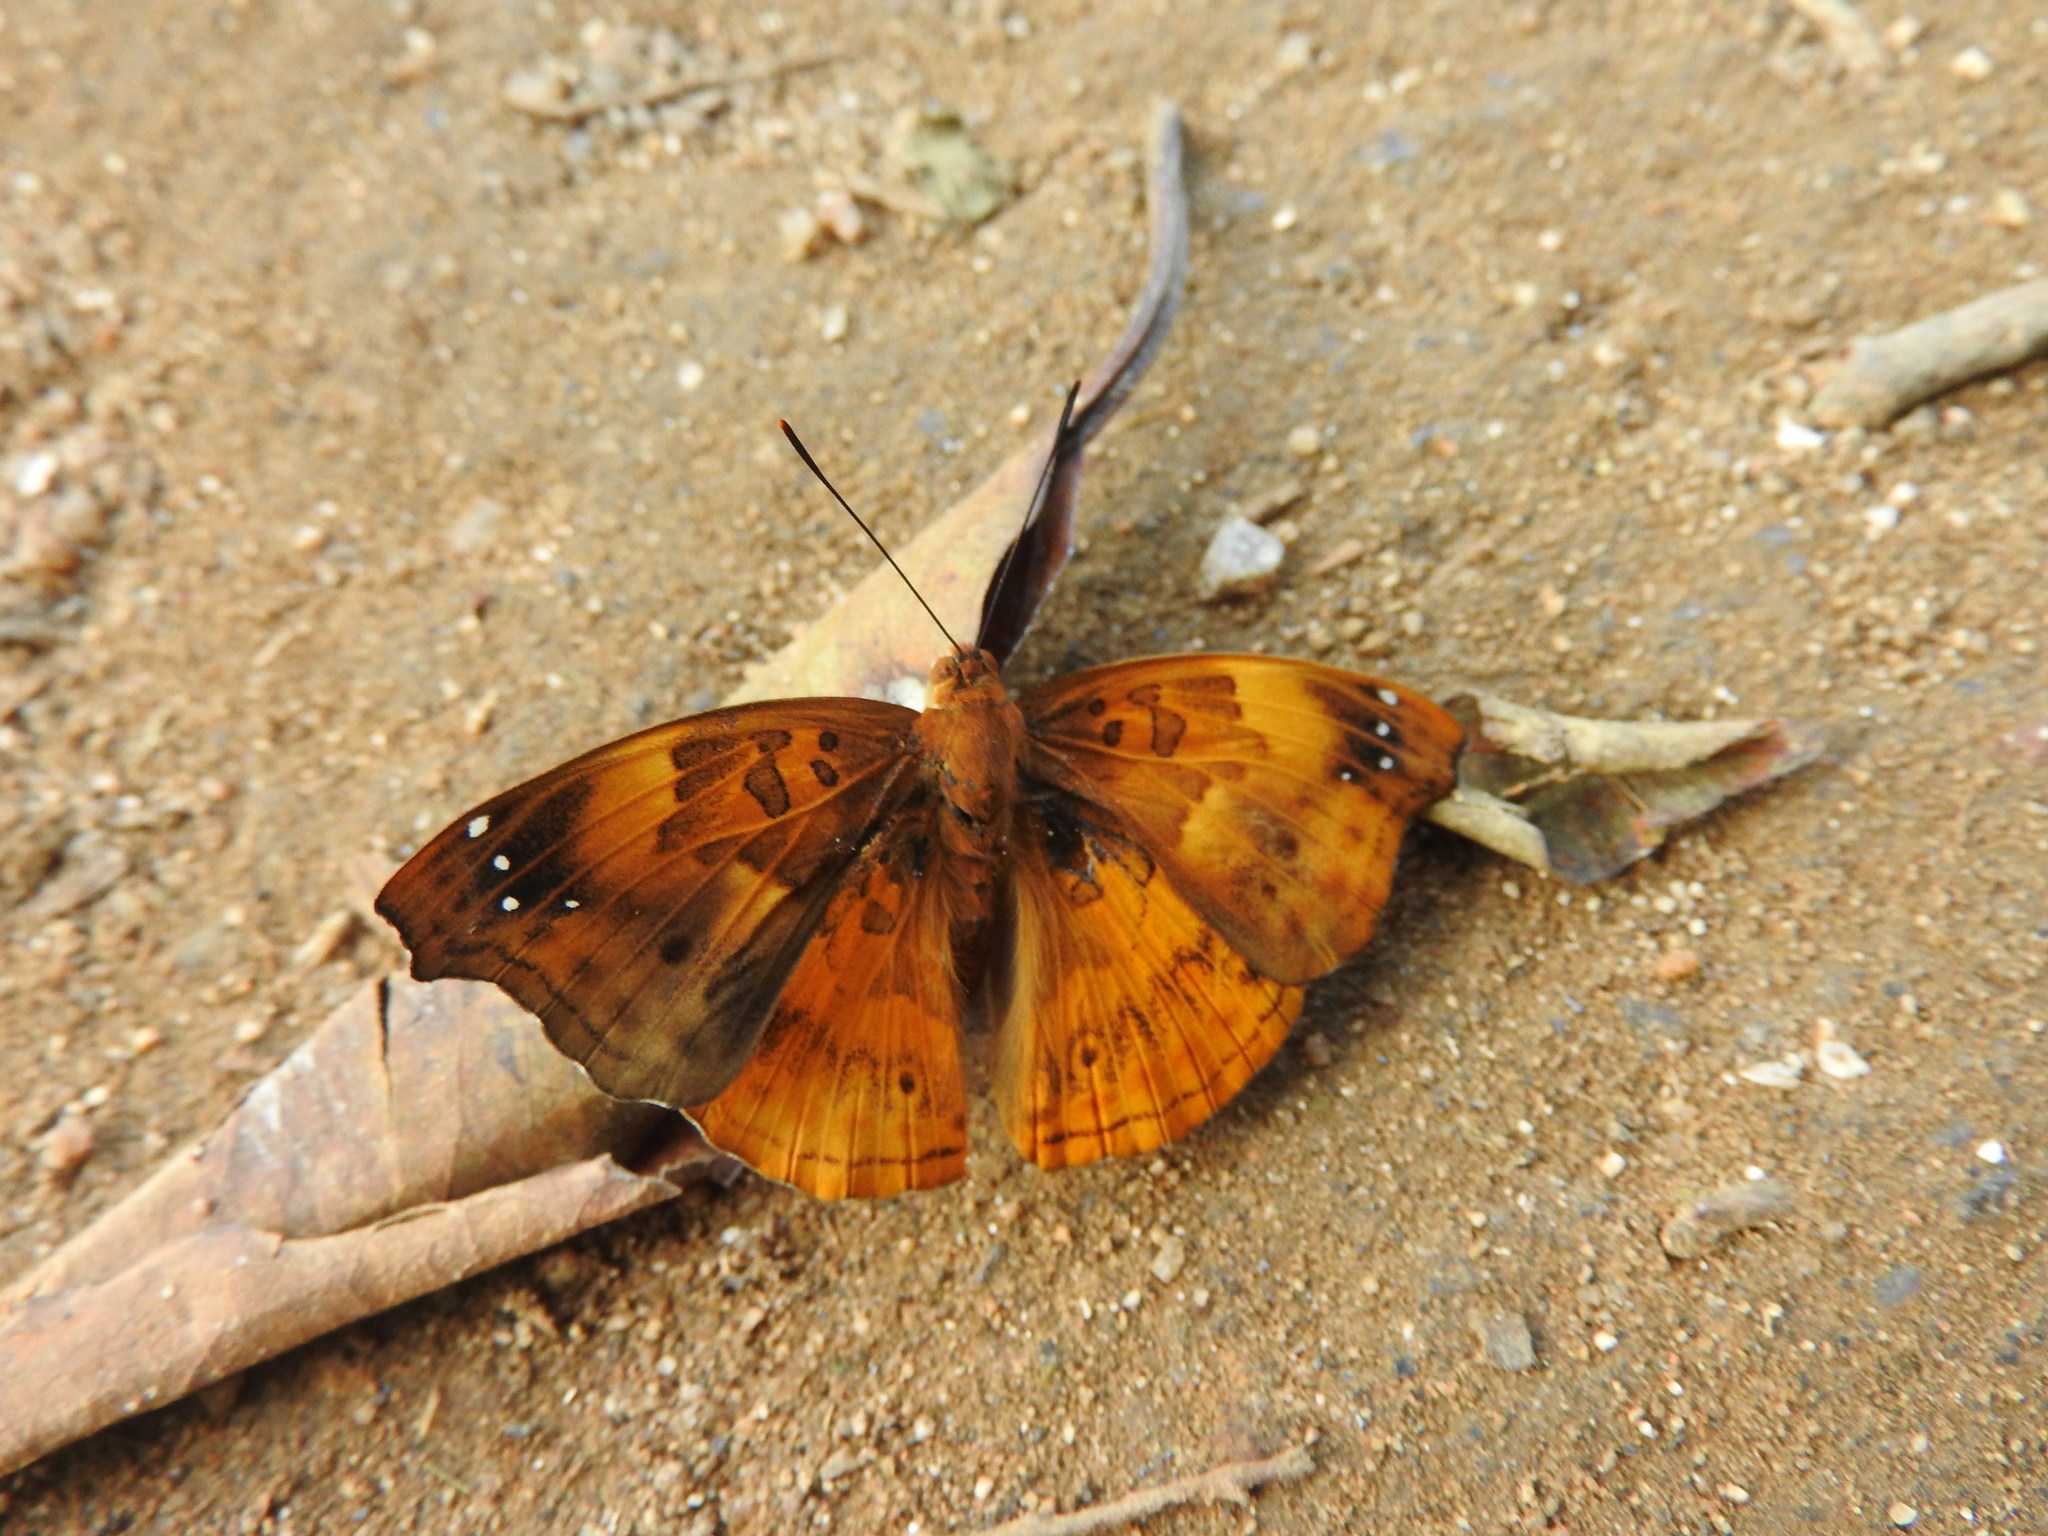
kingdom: Animalia
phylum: Arthropoda
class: Insecta
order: Lepidoptera
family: Nymphalidae
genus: Apatura
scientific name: Apatura Rohana spec
